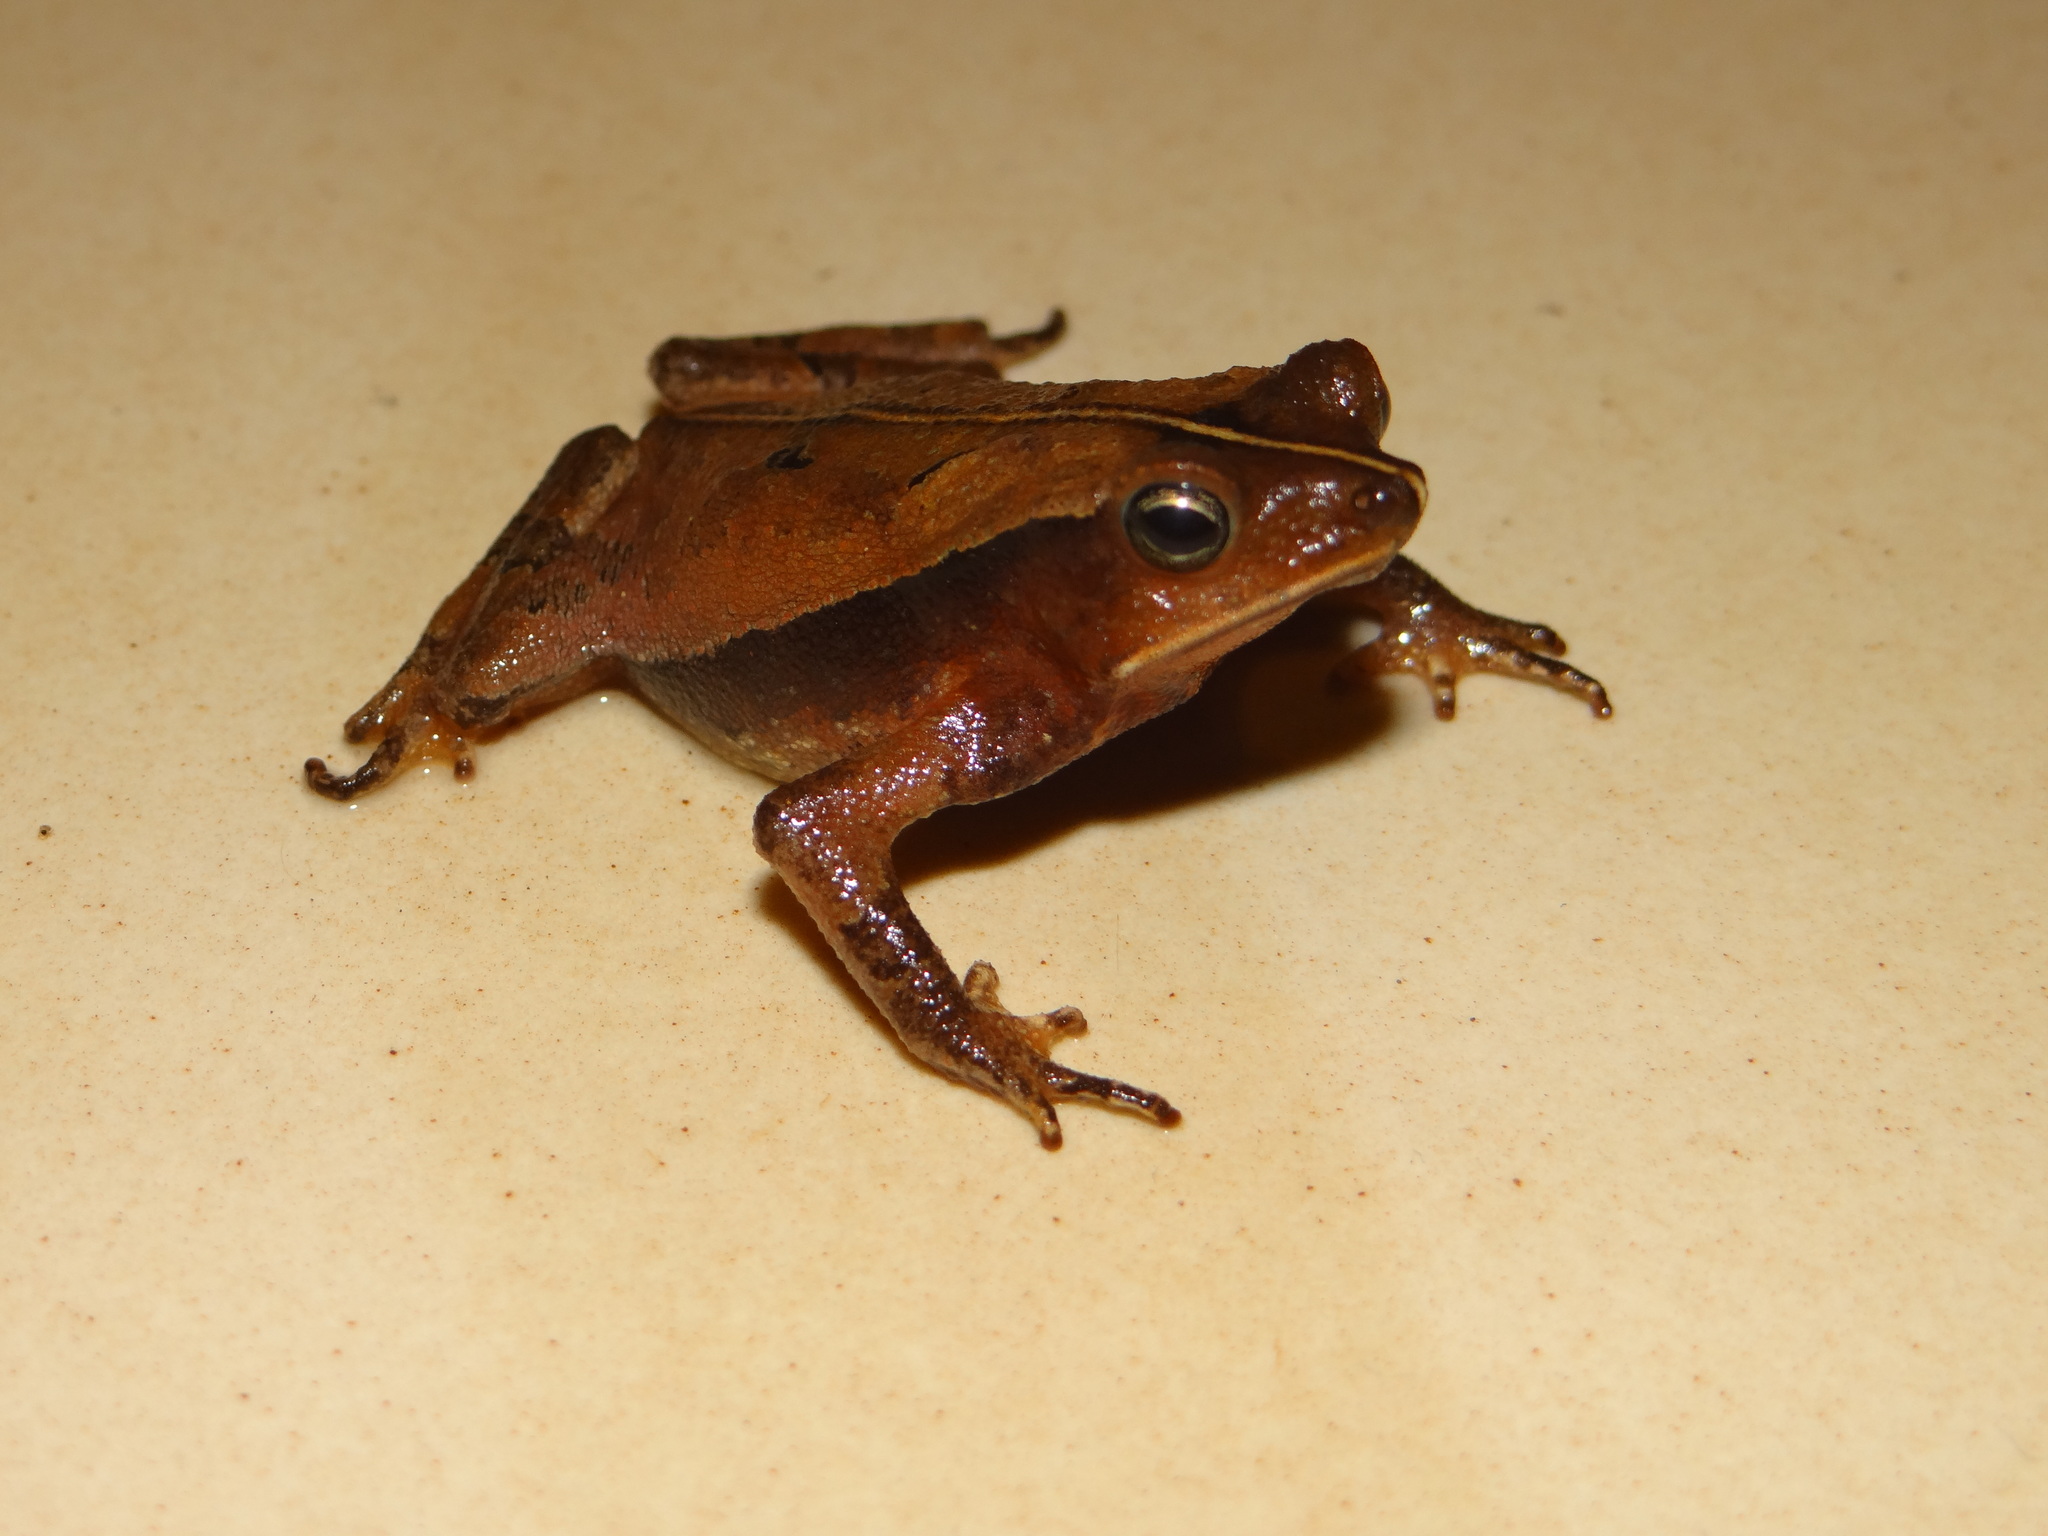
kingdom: Animalia
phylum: Chordata
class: Amphibia
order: Anura
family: Bufonidae
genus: Rhinella
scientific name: Rhinella castaneotica
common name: Para toad
